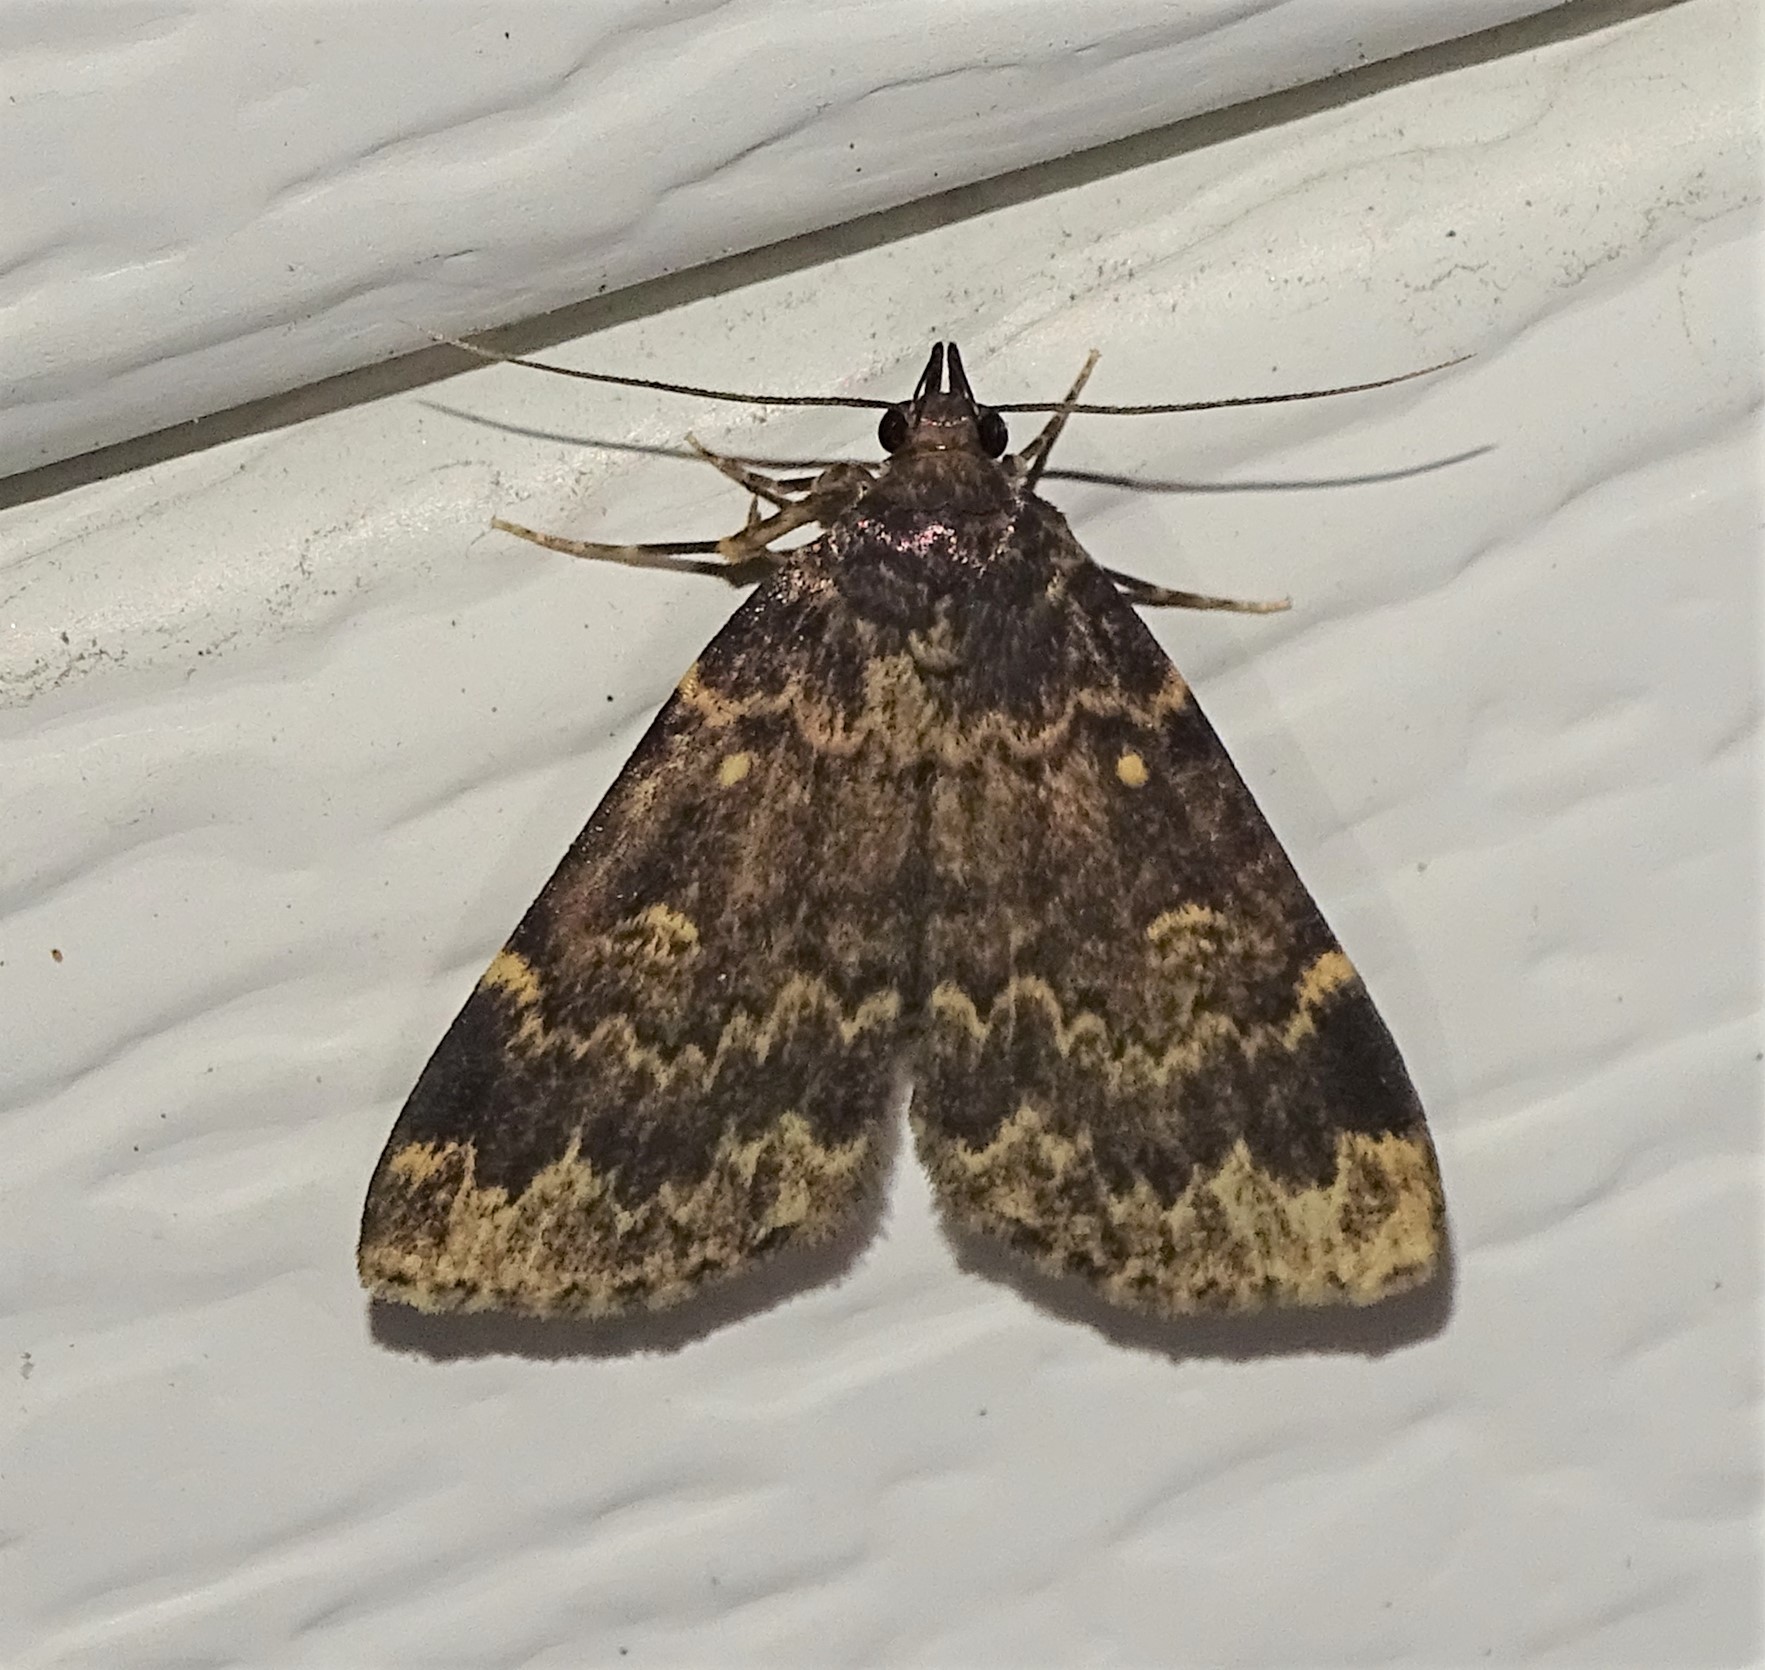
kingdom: Animalia
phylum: Arthropoda
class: Insecta
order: Lepidoptera
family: Erebidae
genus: Idia
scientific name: Idia lubricalis
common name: Twin-striped tabby
